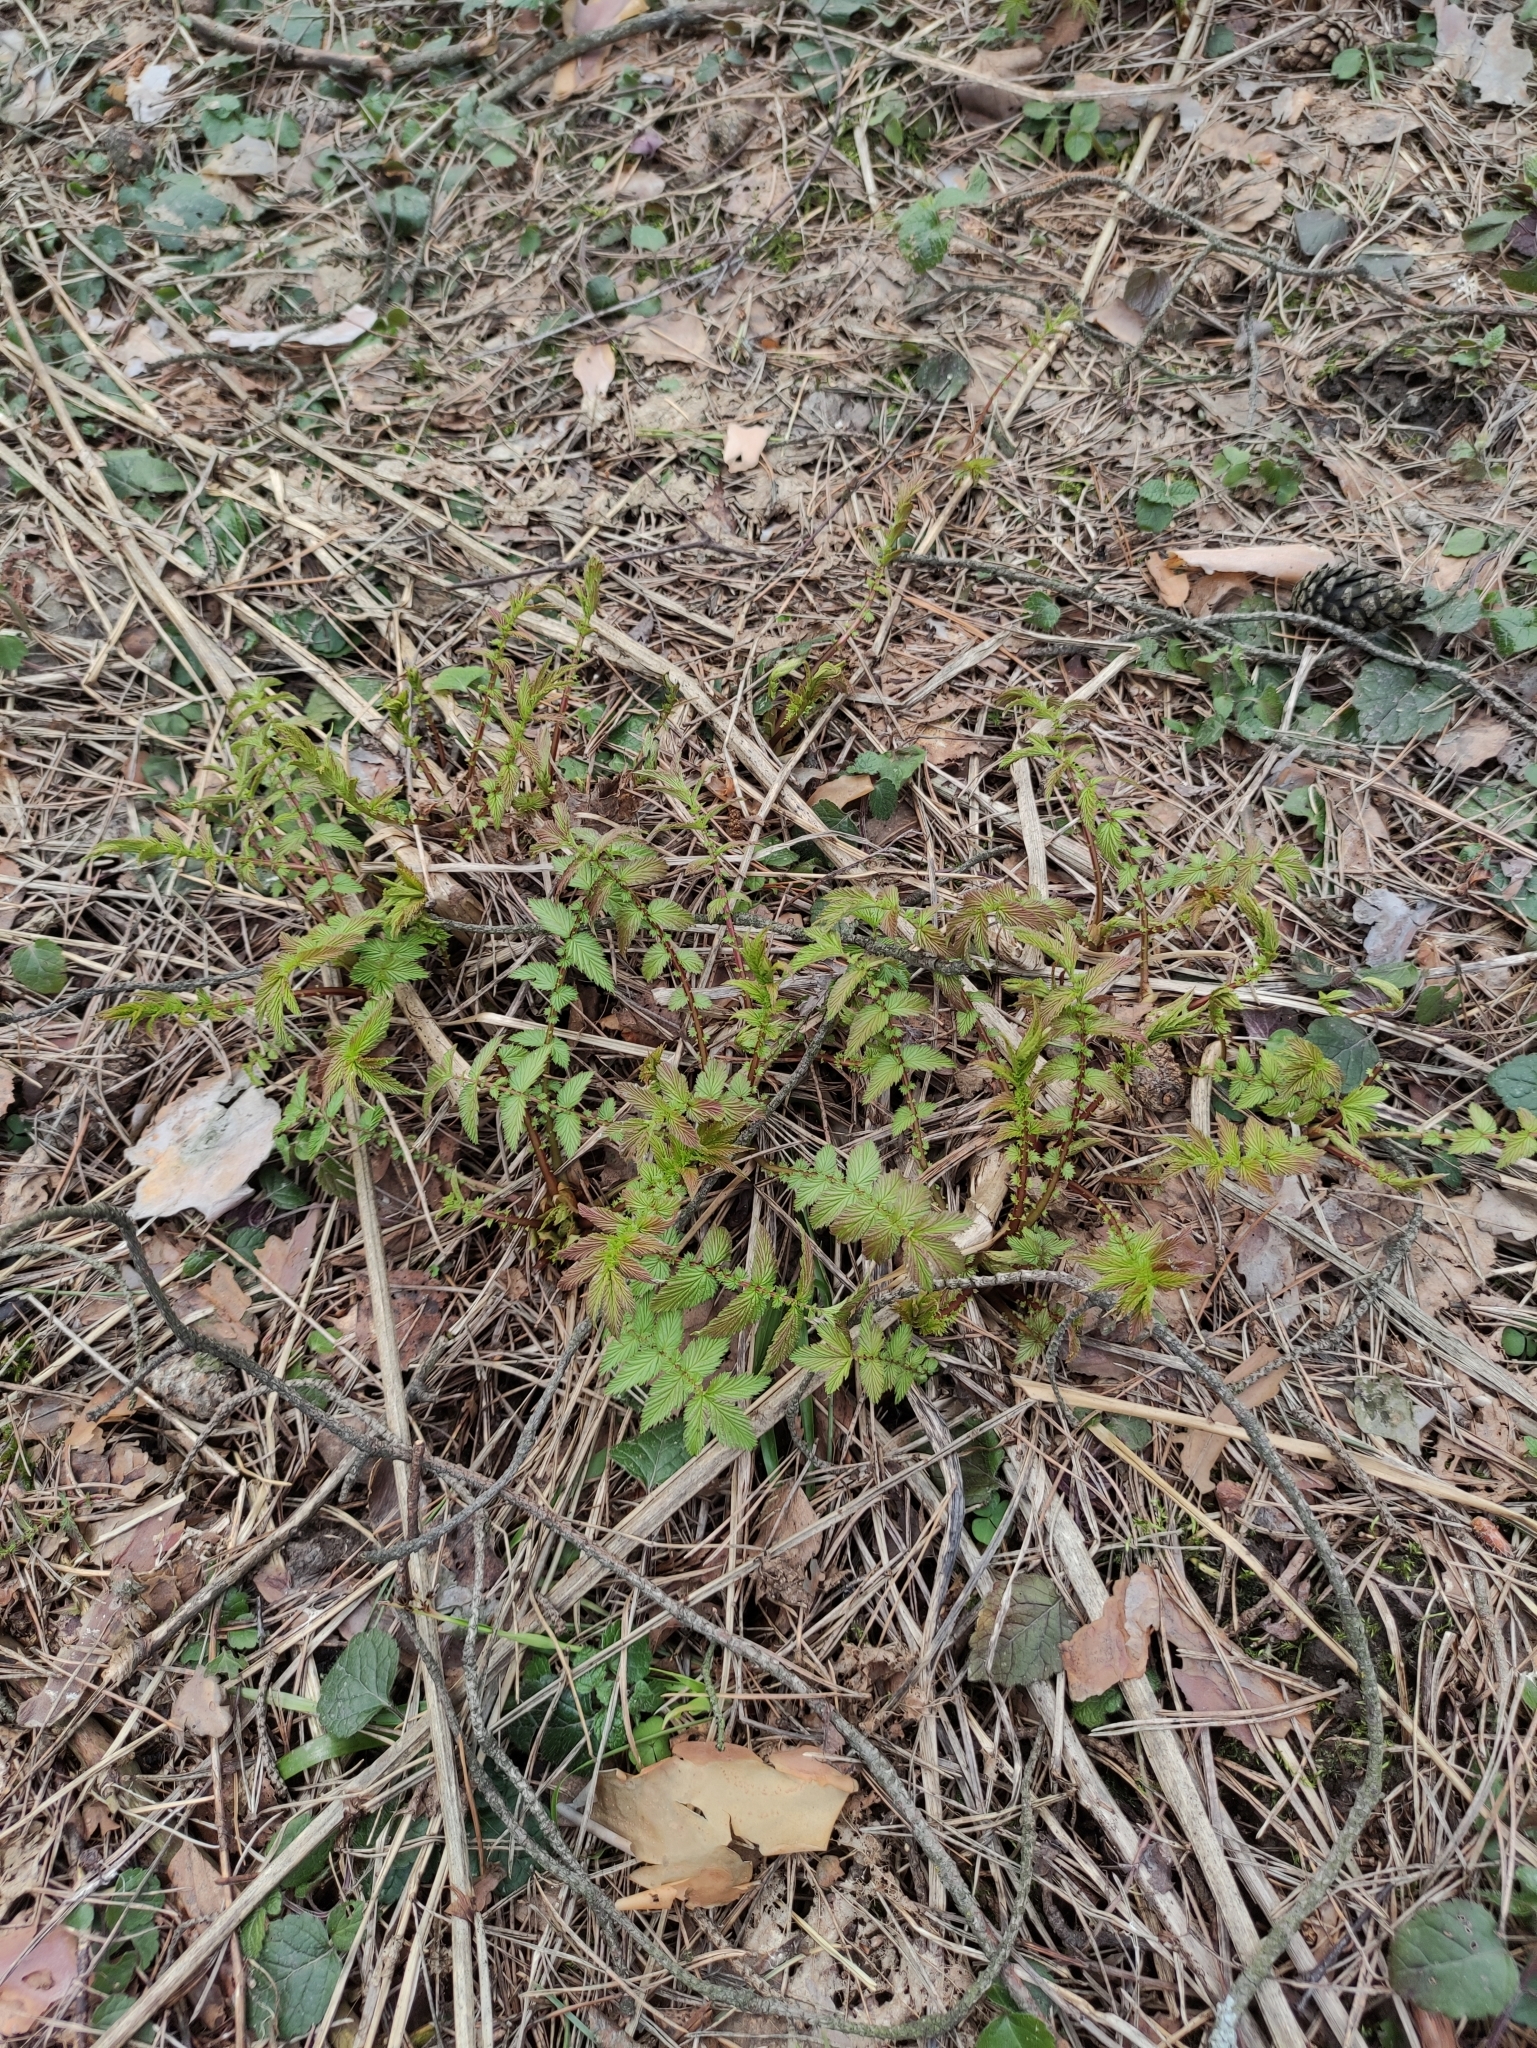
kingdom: Plantae
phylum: Tracheophyta
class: Magnoliopsida
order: Rosales
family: Rosaceae
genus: Filipendula
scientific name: Filipendula ulmaria
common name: Meadowsweet
